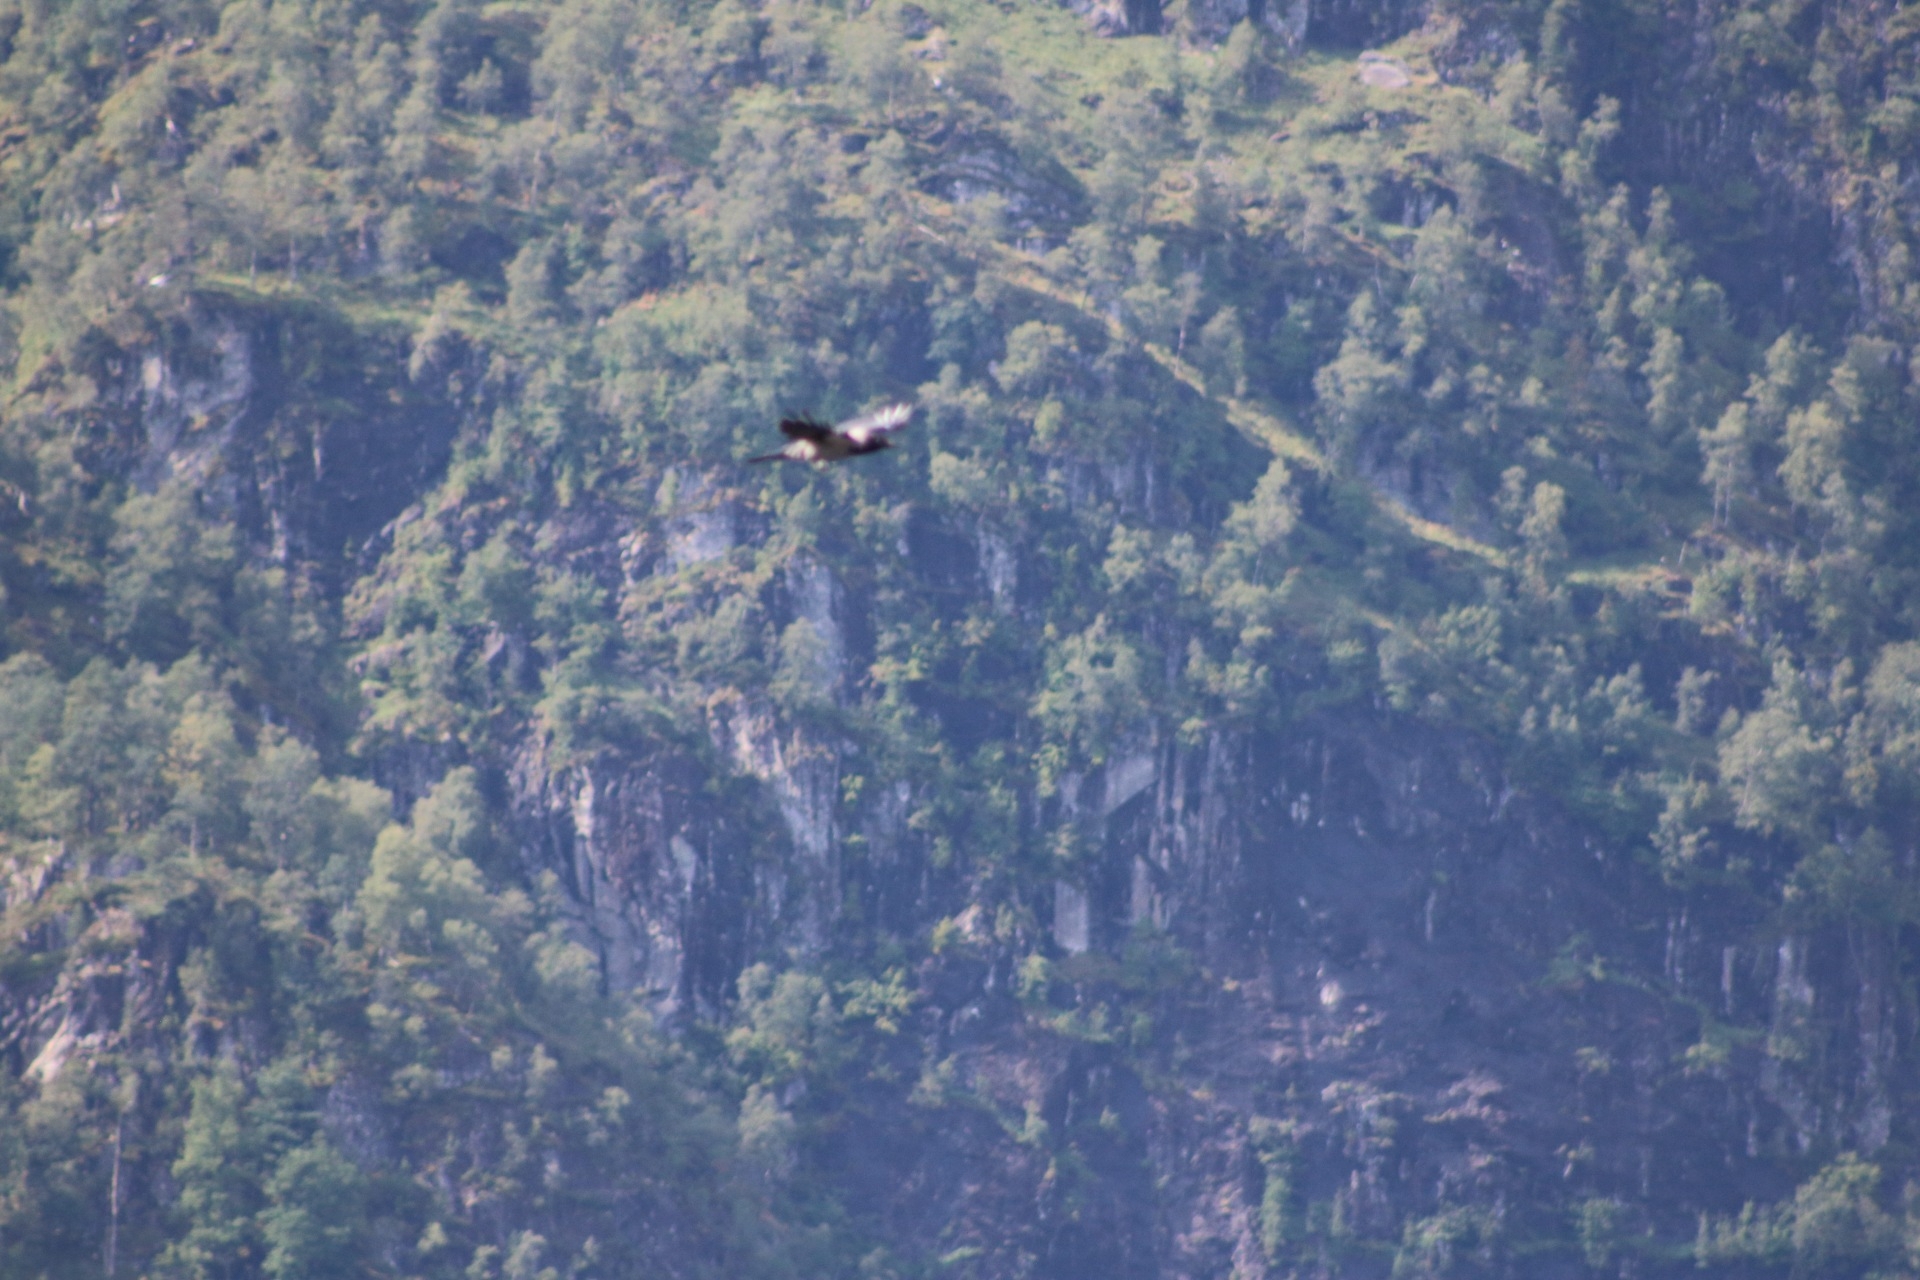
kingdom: Animalia
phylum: Chordata
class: Aves
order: Passeriformes
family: Corvidae
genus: Corvus
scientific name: Corvus cornix
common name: Hooded crow
